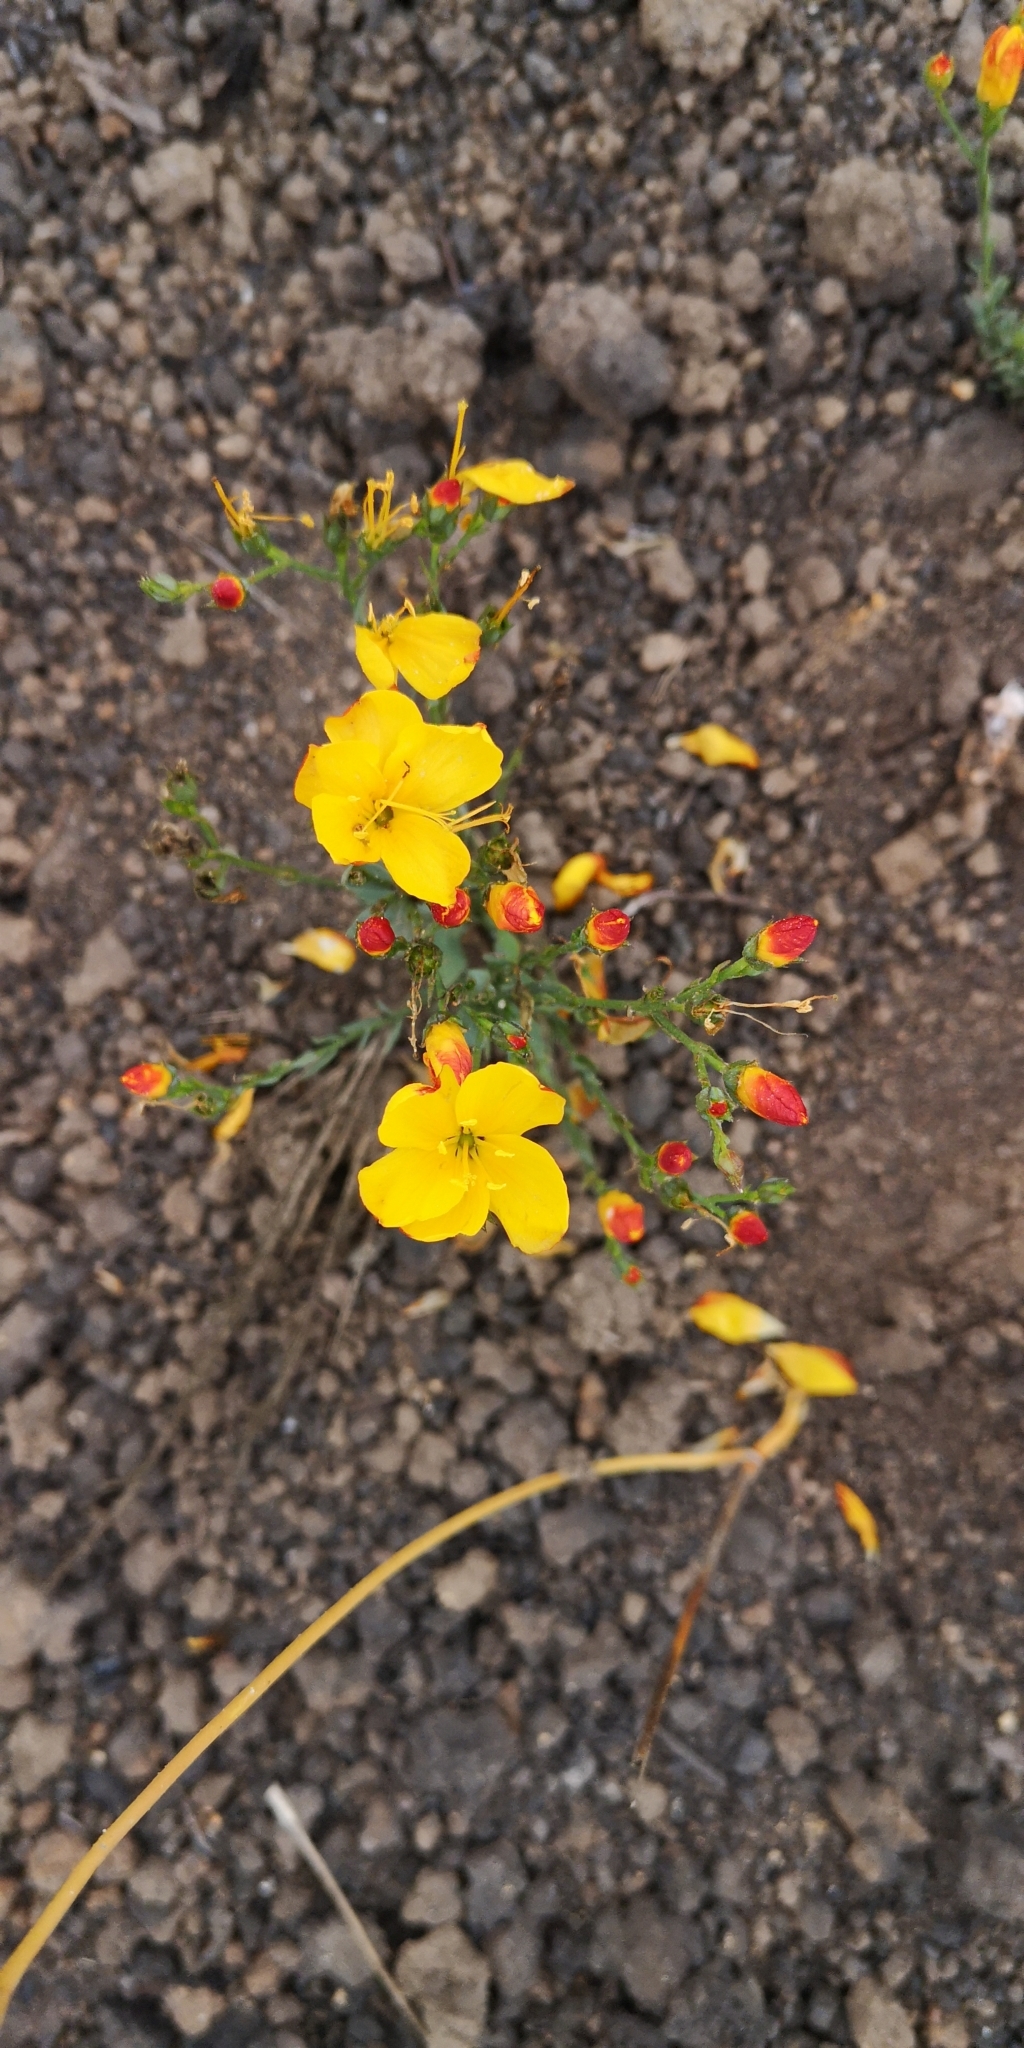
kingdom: Plantae
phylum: Tracheophyta
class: Magnoliopsida
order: Malpighiales
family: Linaceae
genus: Linum
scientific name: Linum macraei
